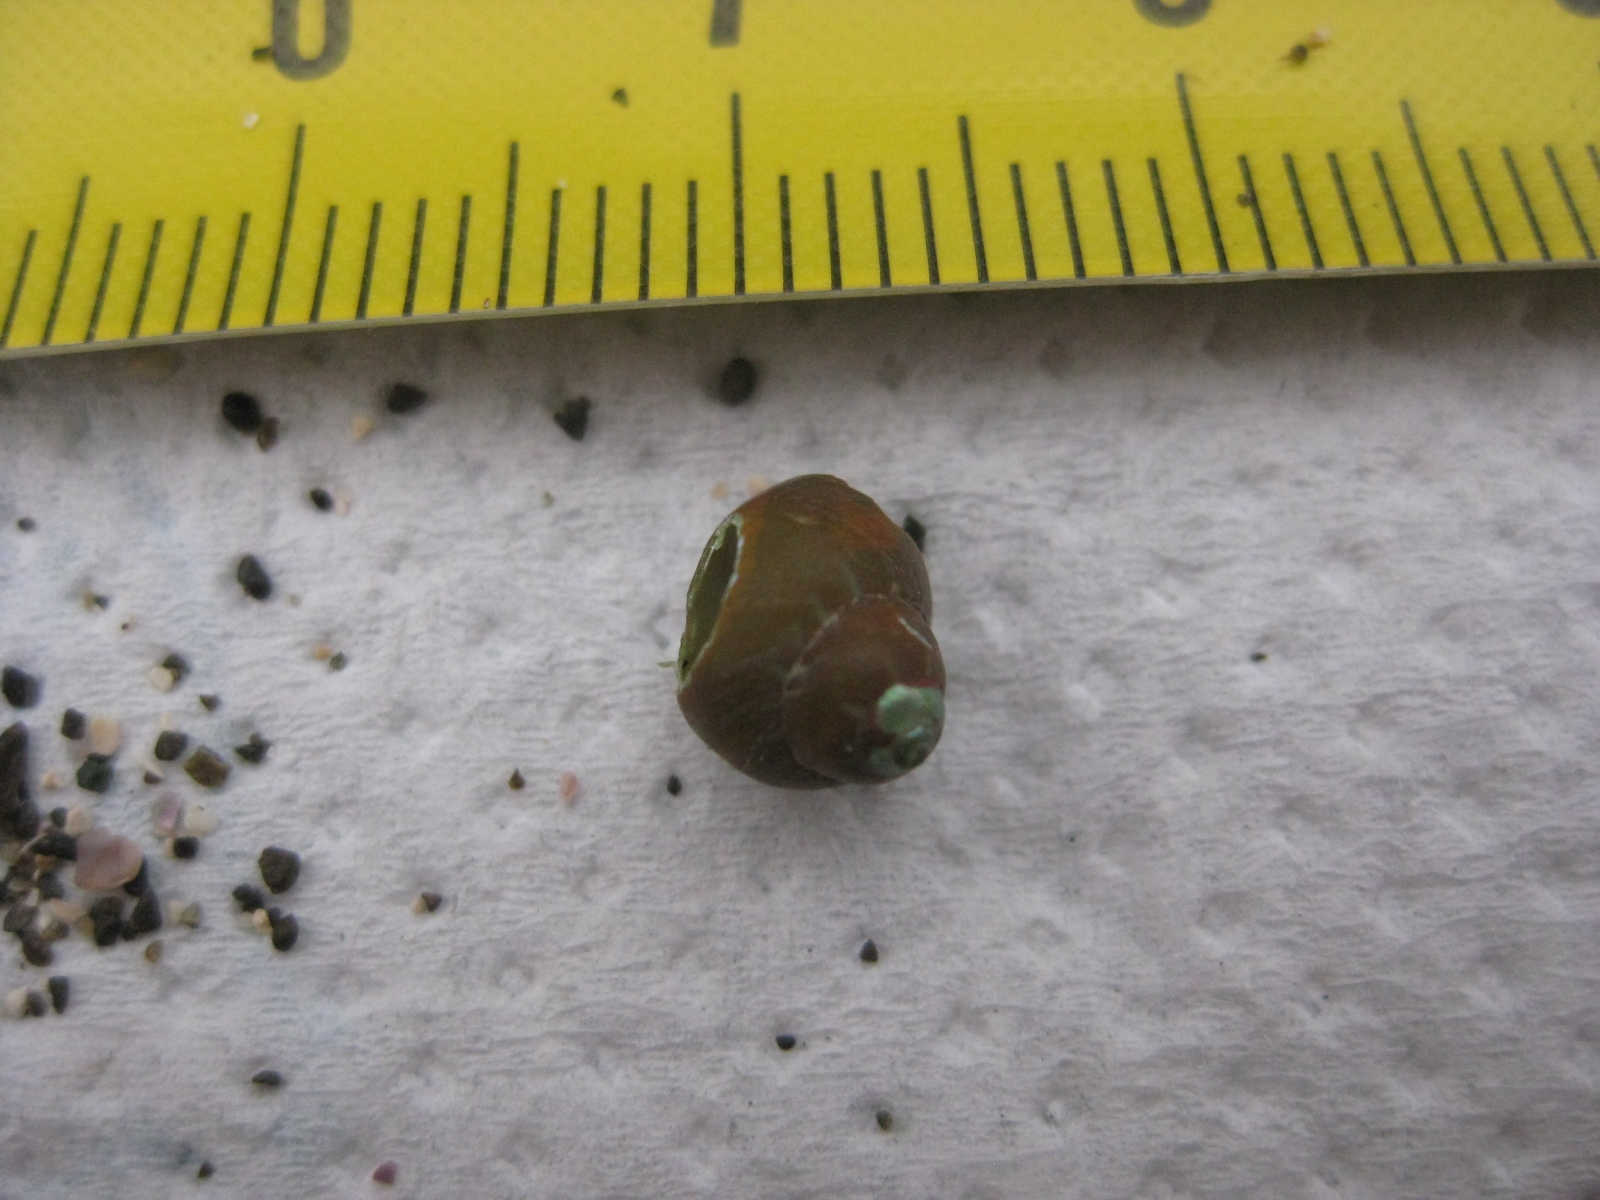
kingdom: Animalia
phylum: Mollusca
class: Gastropoda
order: Trochida
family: Trochidae
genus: Cantharidus
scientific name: Cantharidus dilatatus
